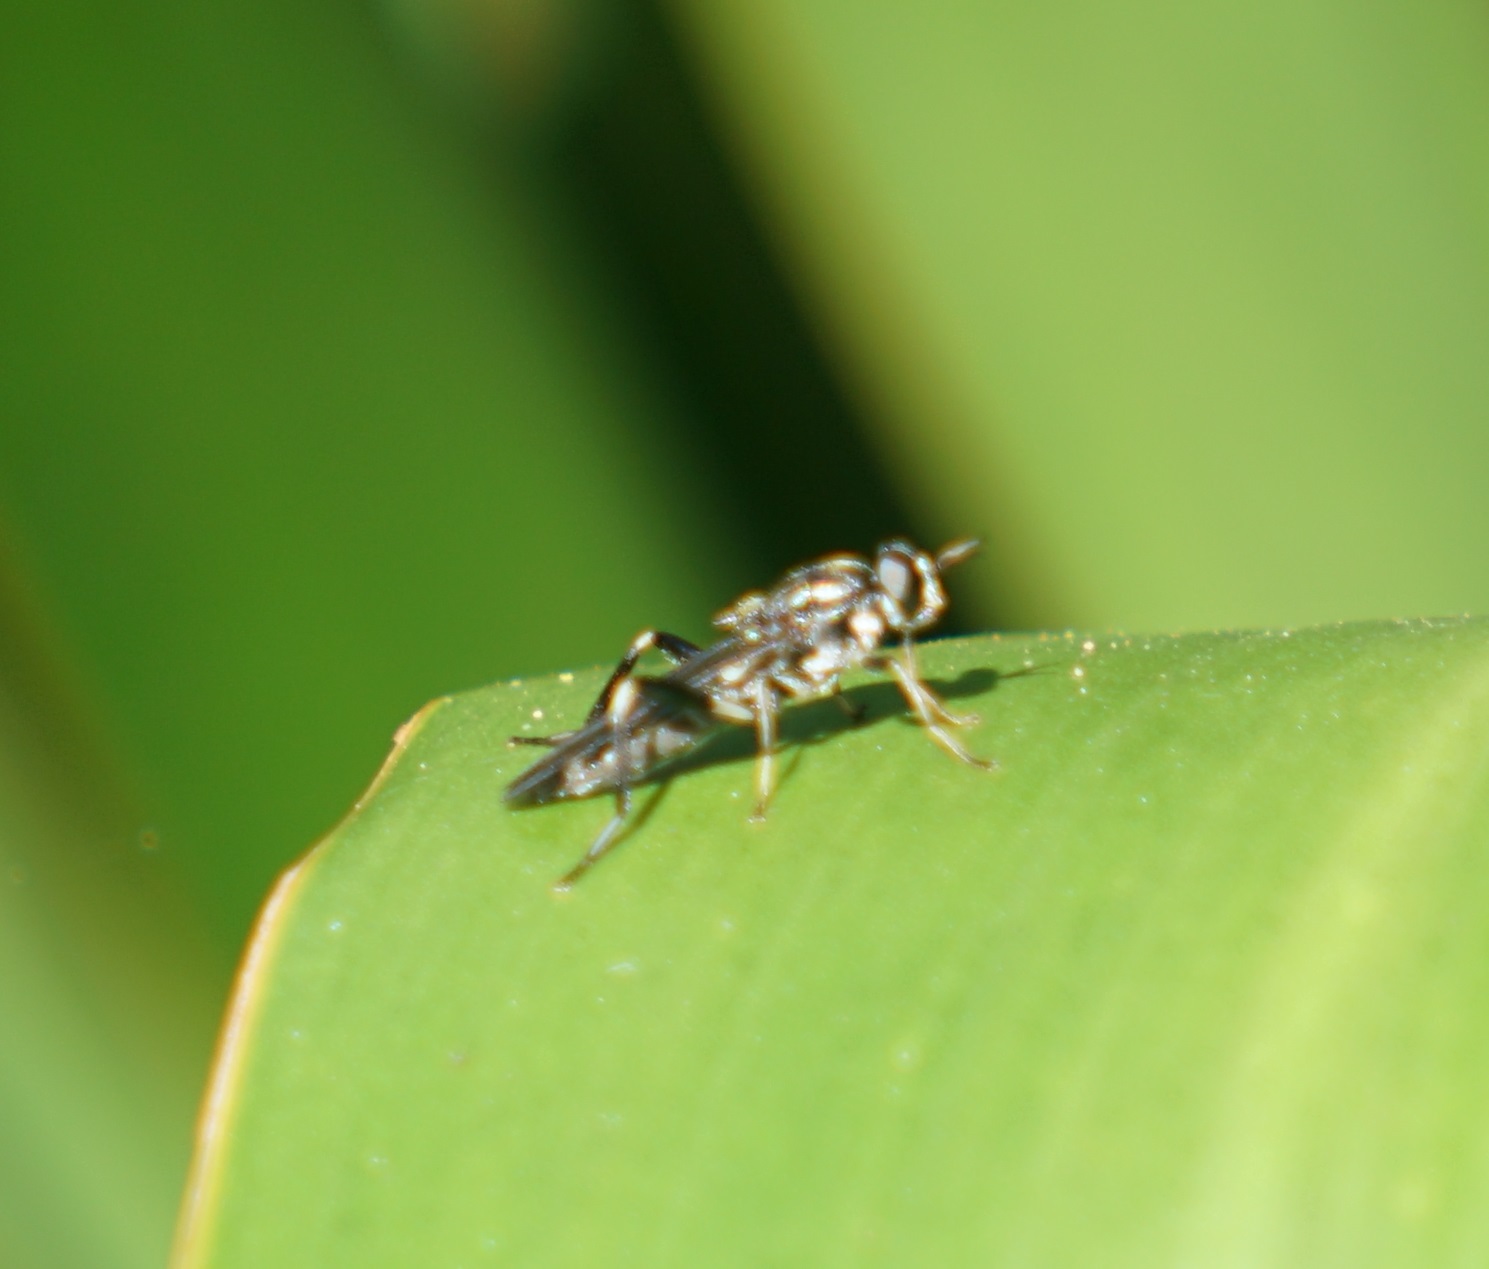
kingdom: Animalia
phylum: Arthropoda
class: Insecta
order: Diptera
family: Stratiomyidae
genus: Exaireta
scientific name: Exaireta spinigera
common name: Blue soldier fly
